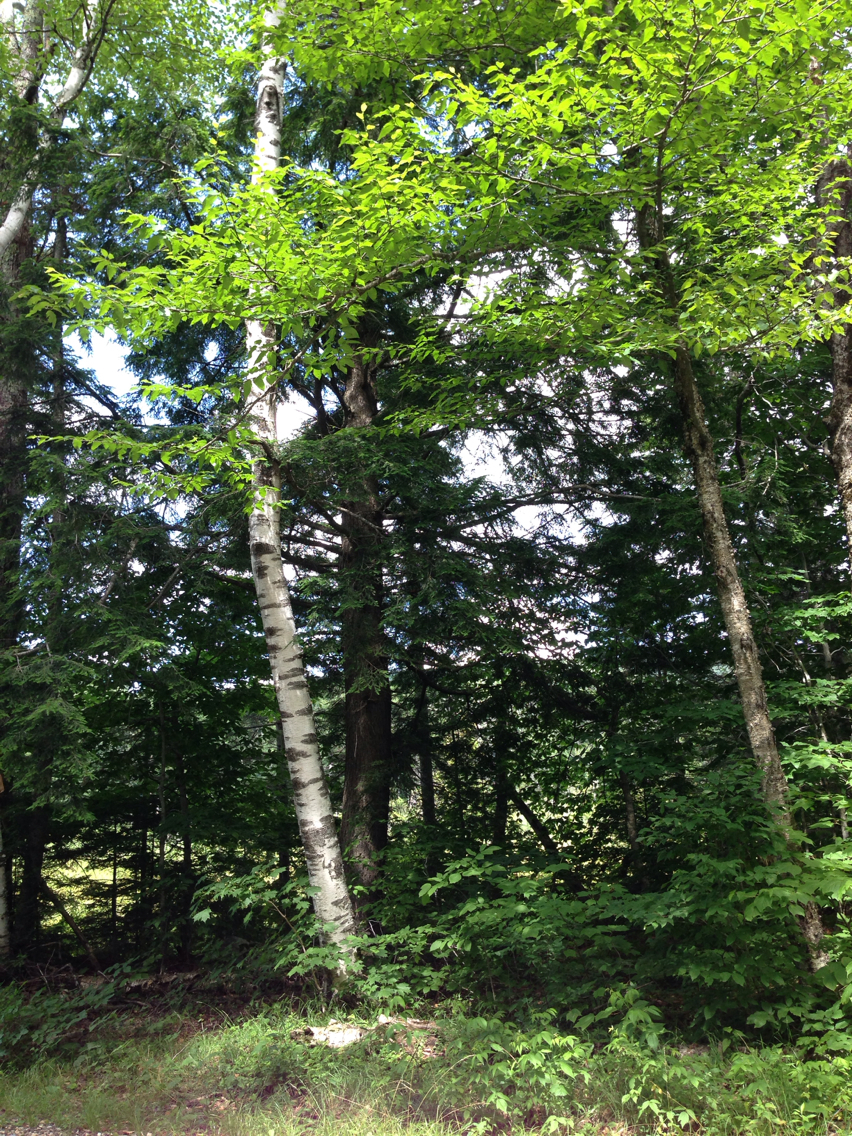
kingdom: Plantae
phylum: Tracheophyta
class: Pinopsida
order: Pinales
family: Pinaceae
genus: Tsuga
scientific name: Tsuga canadensis
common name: Eastern hemlock
